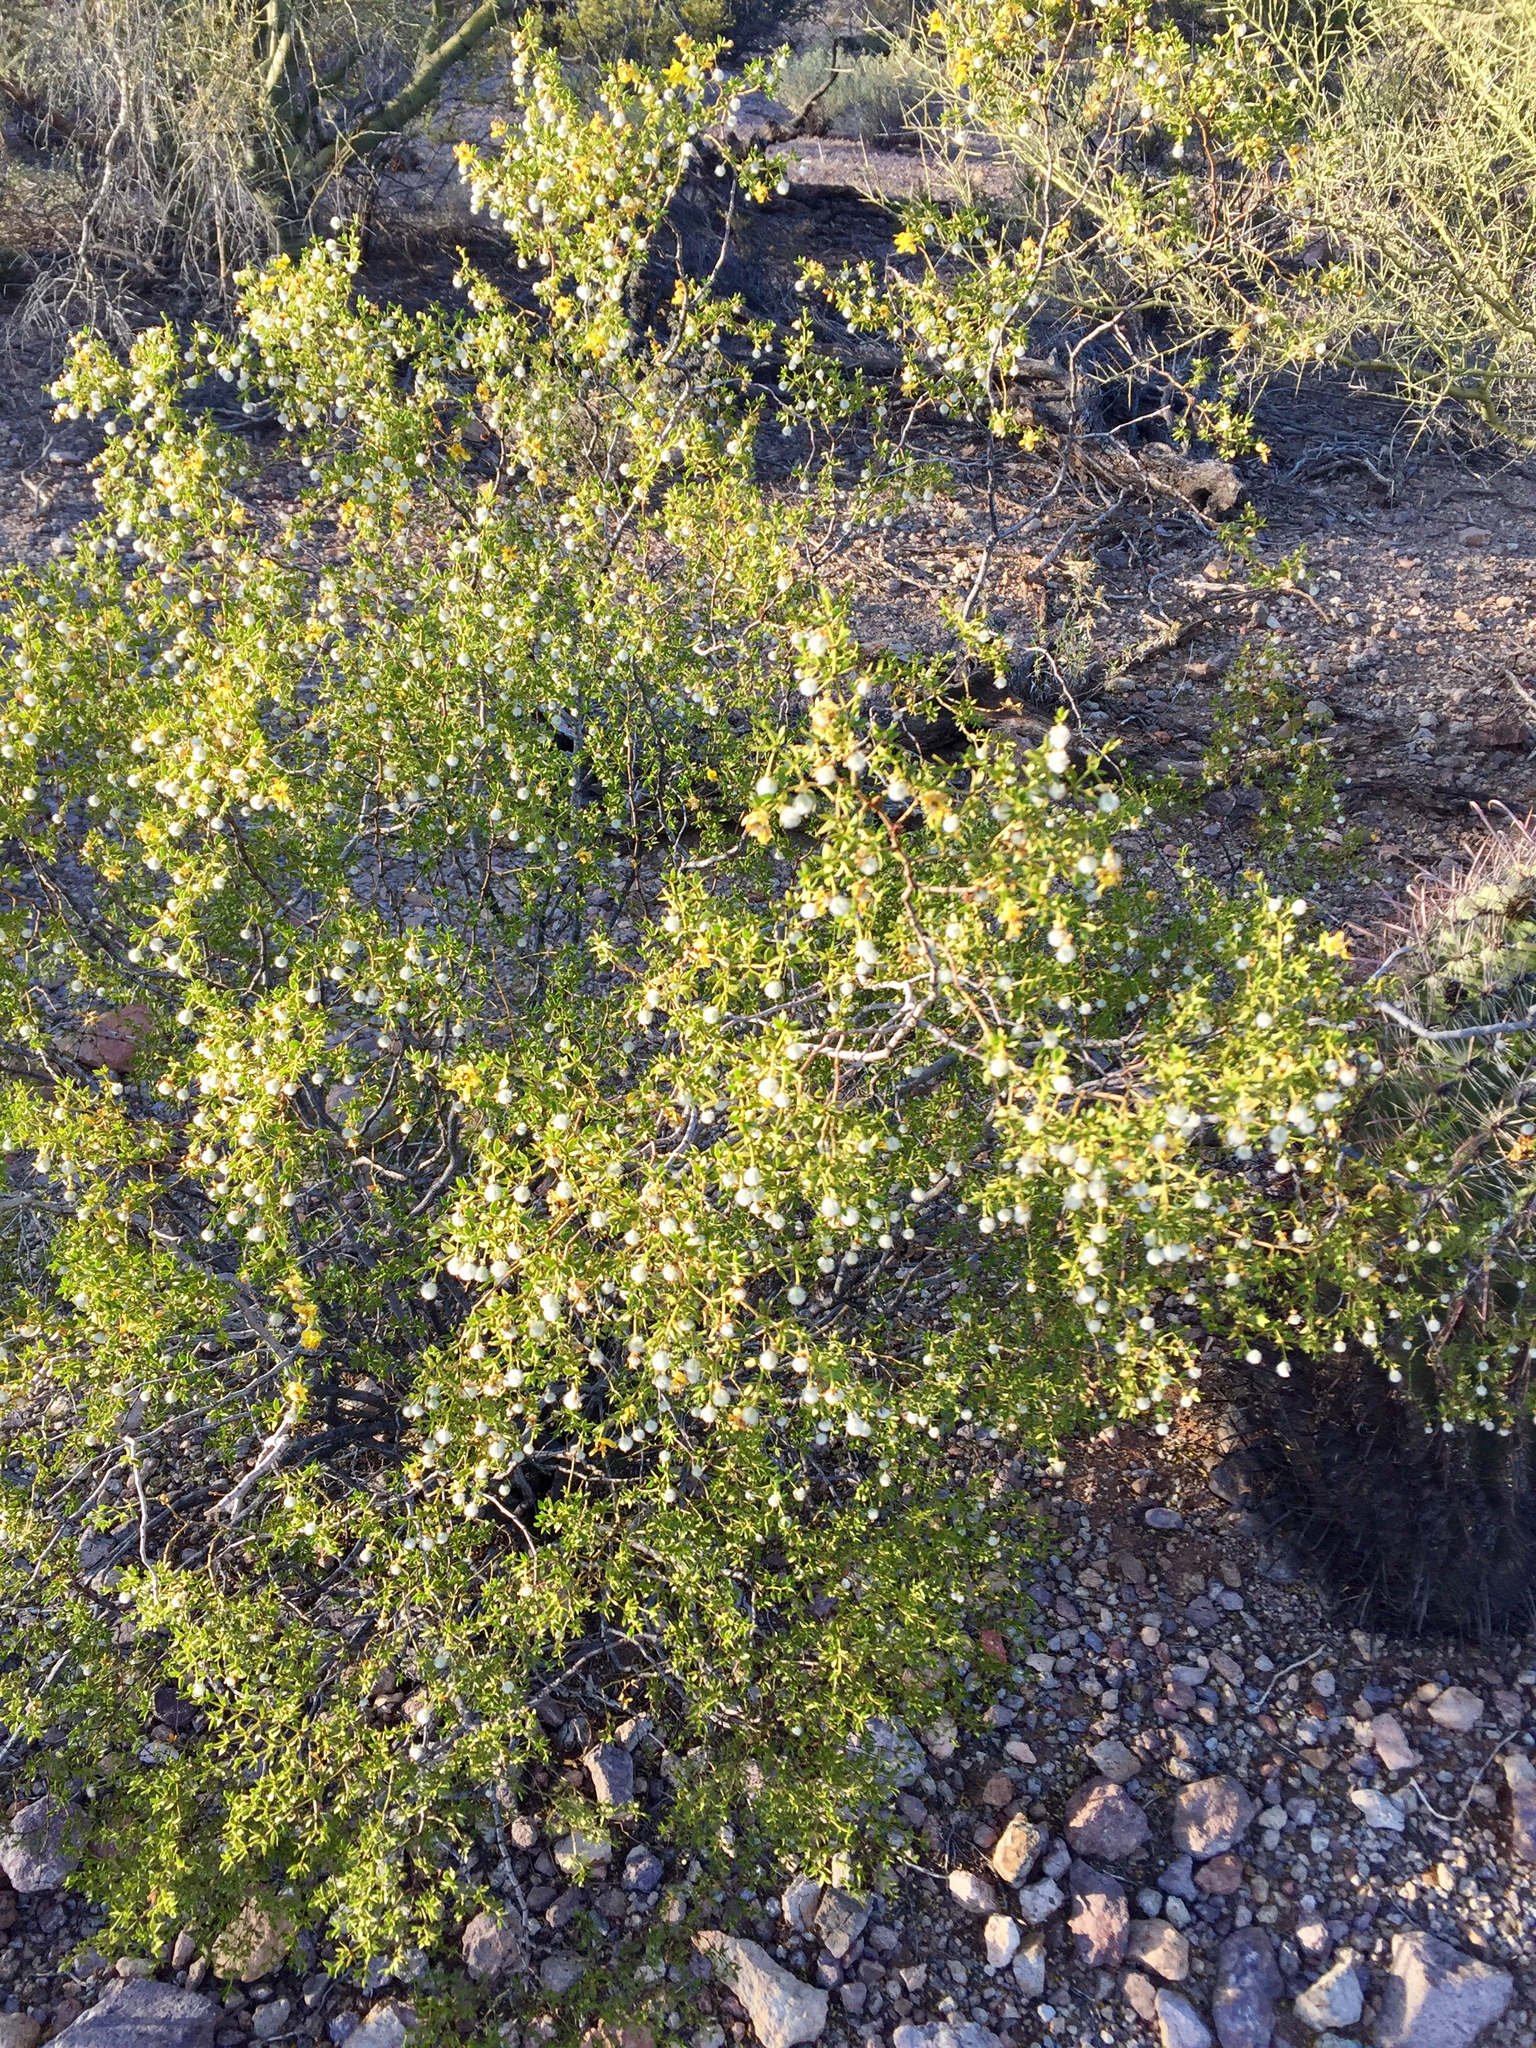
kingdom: Plantae
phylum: Tracheophyta
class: Magnoliopsida
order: Zygophyllales
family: Zygophyllaceae
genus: Larrea
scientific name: Larrea tridentata
